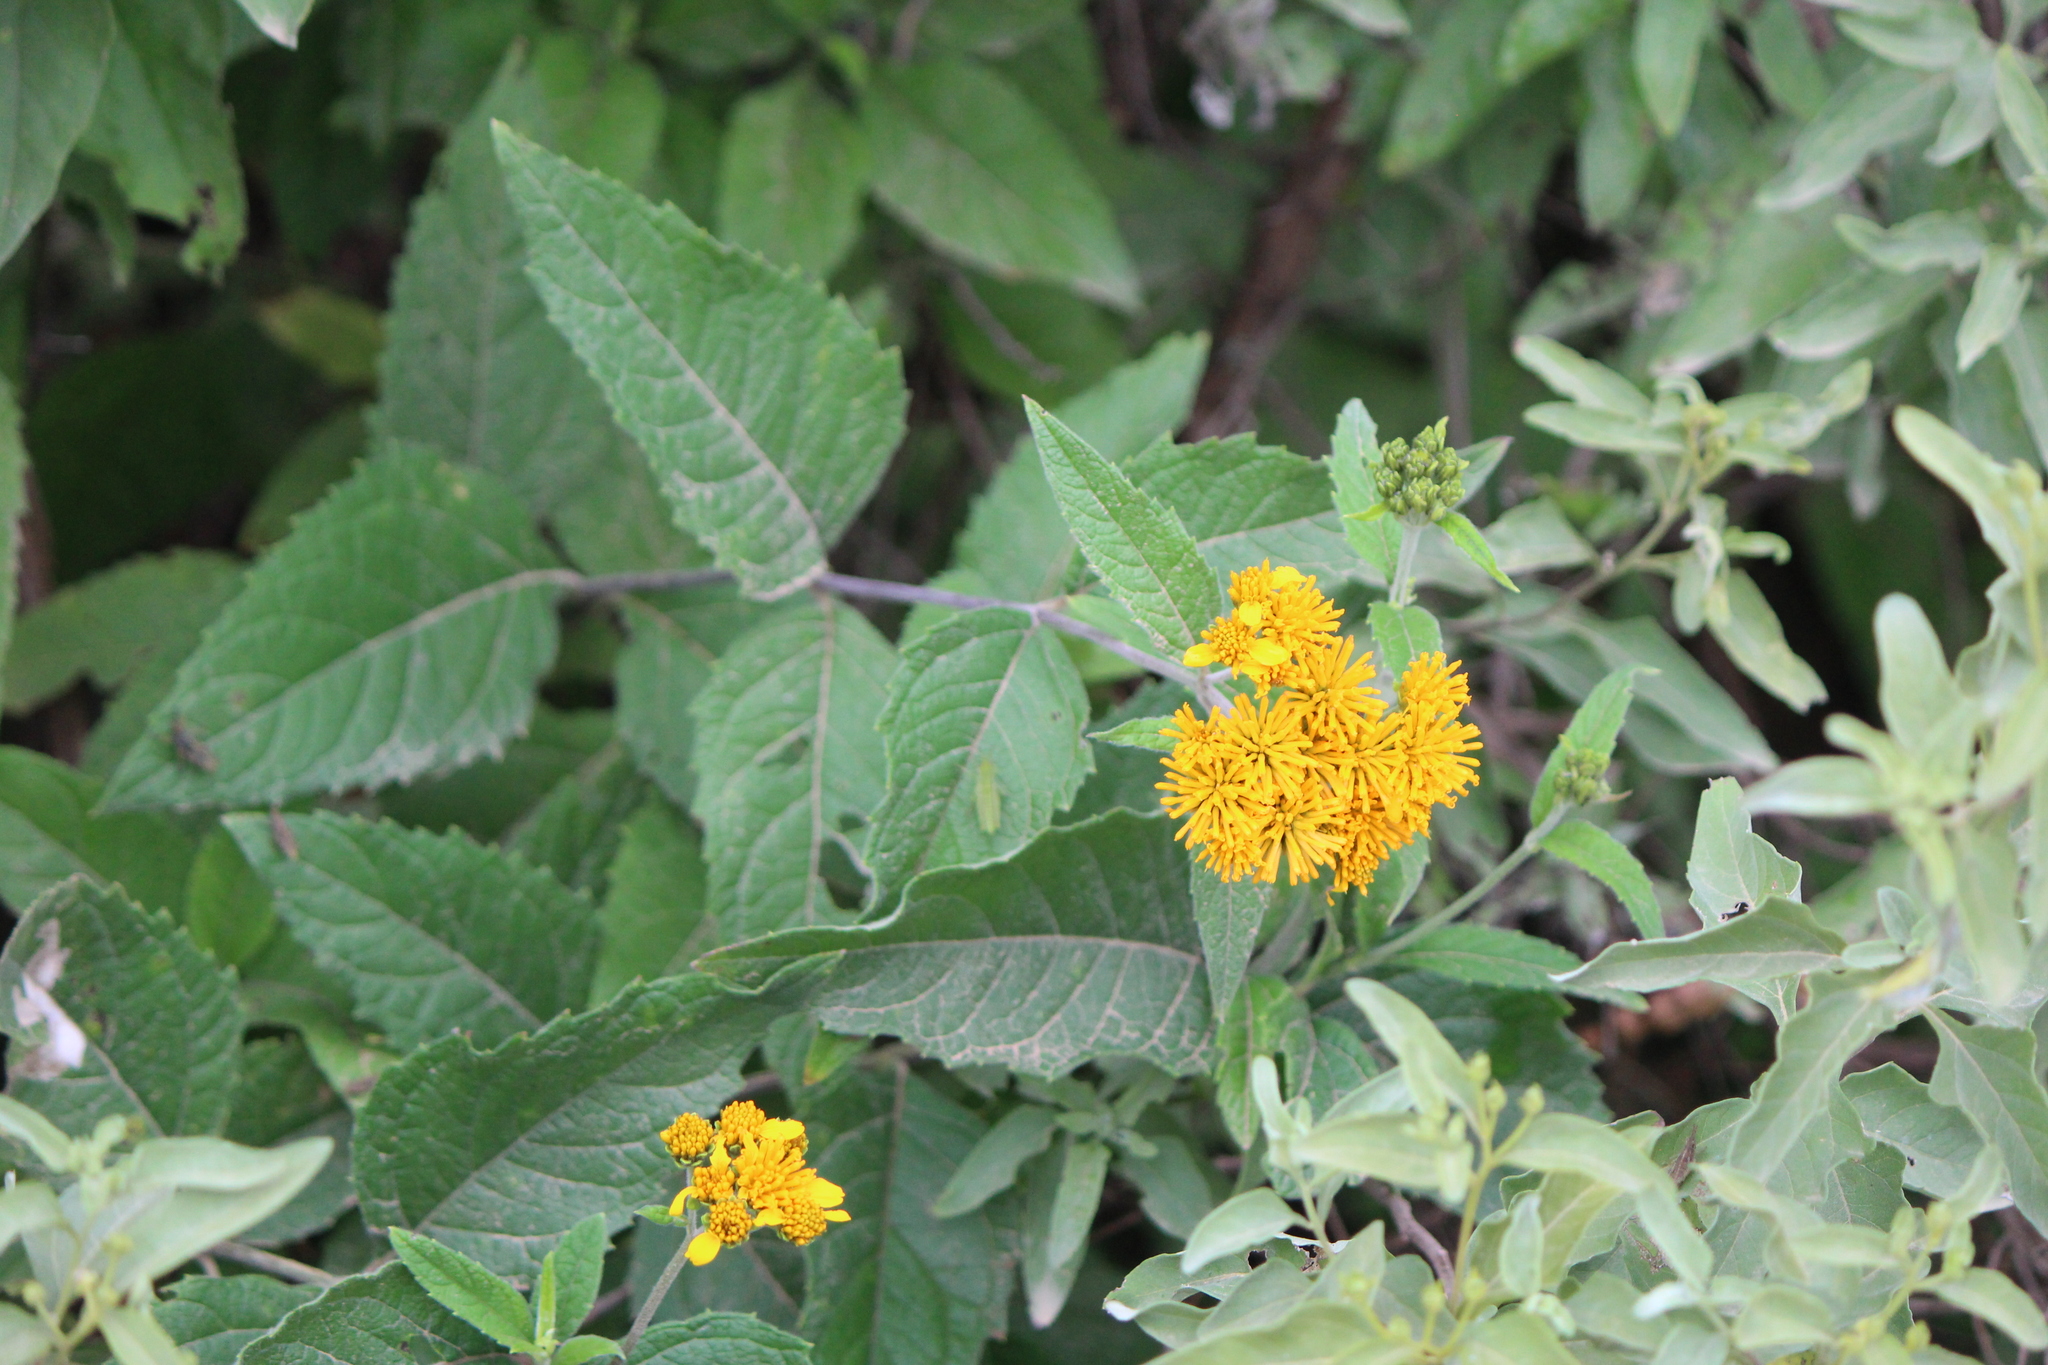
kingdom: Plantae
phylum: Tracheophyta
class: Magnoliopsida
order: Asterales
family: Asteraceae
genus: Verbesina
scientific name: Verbesina serrata
